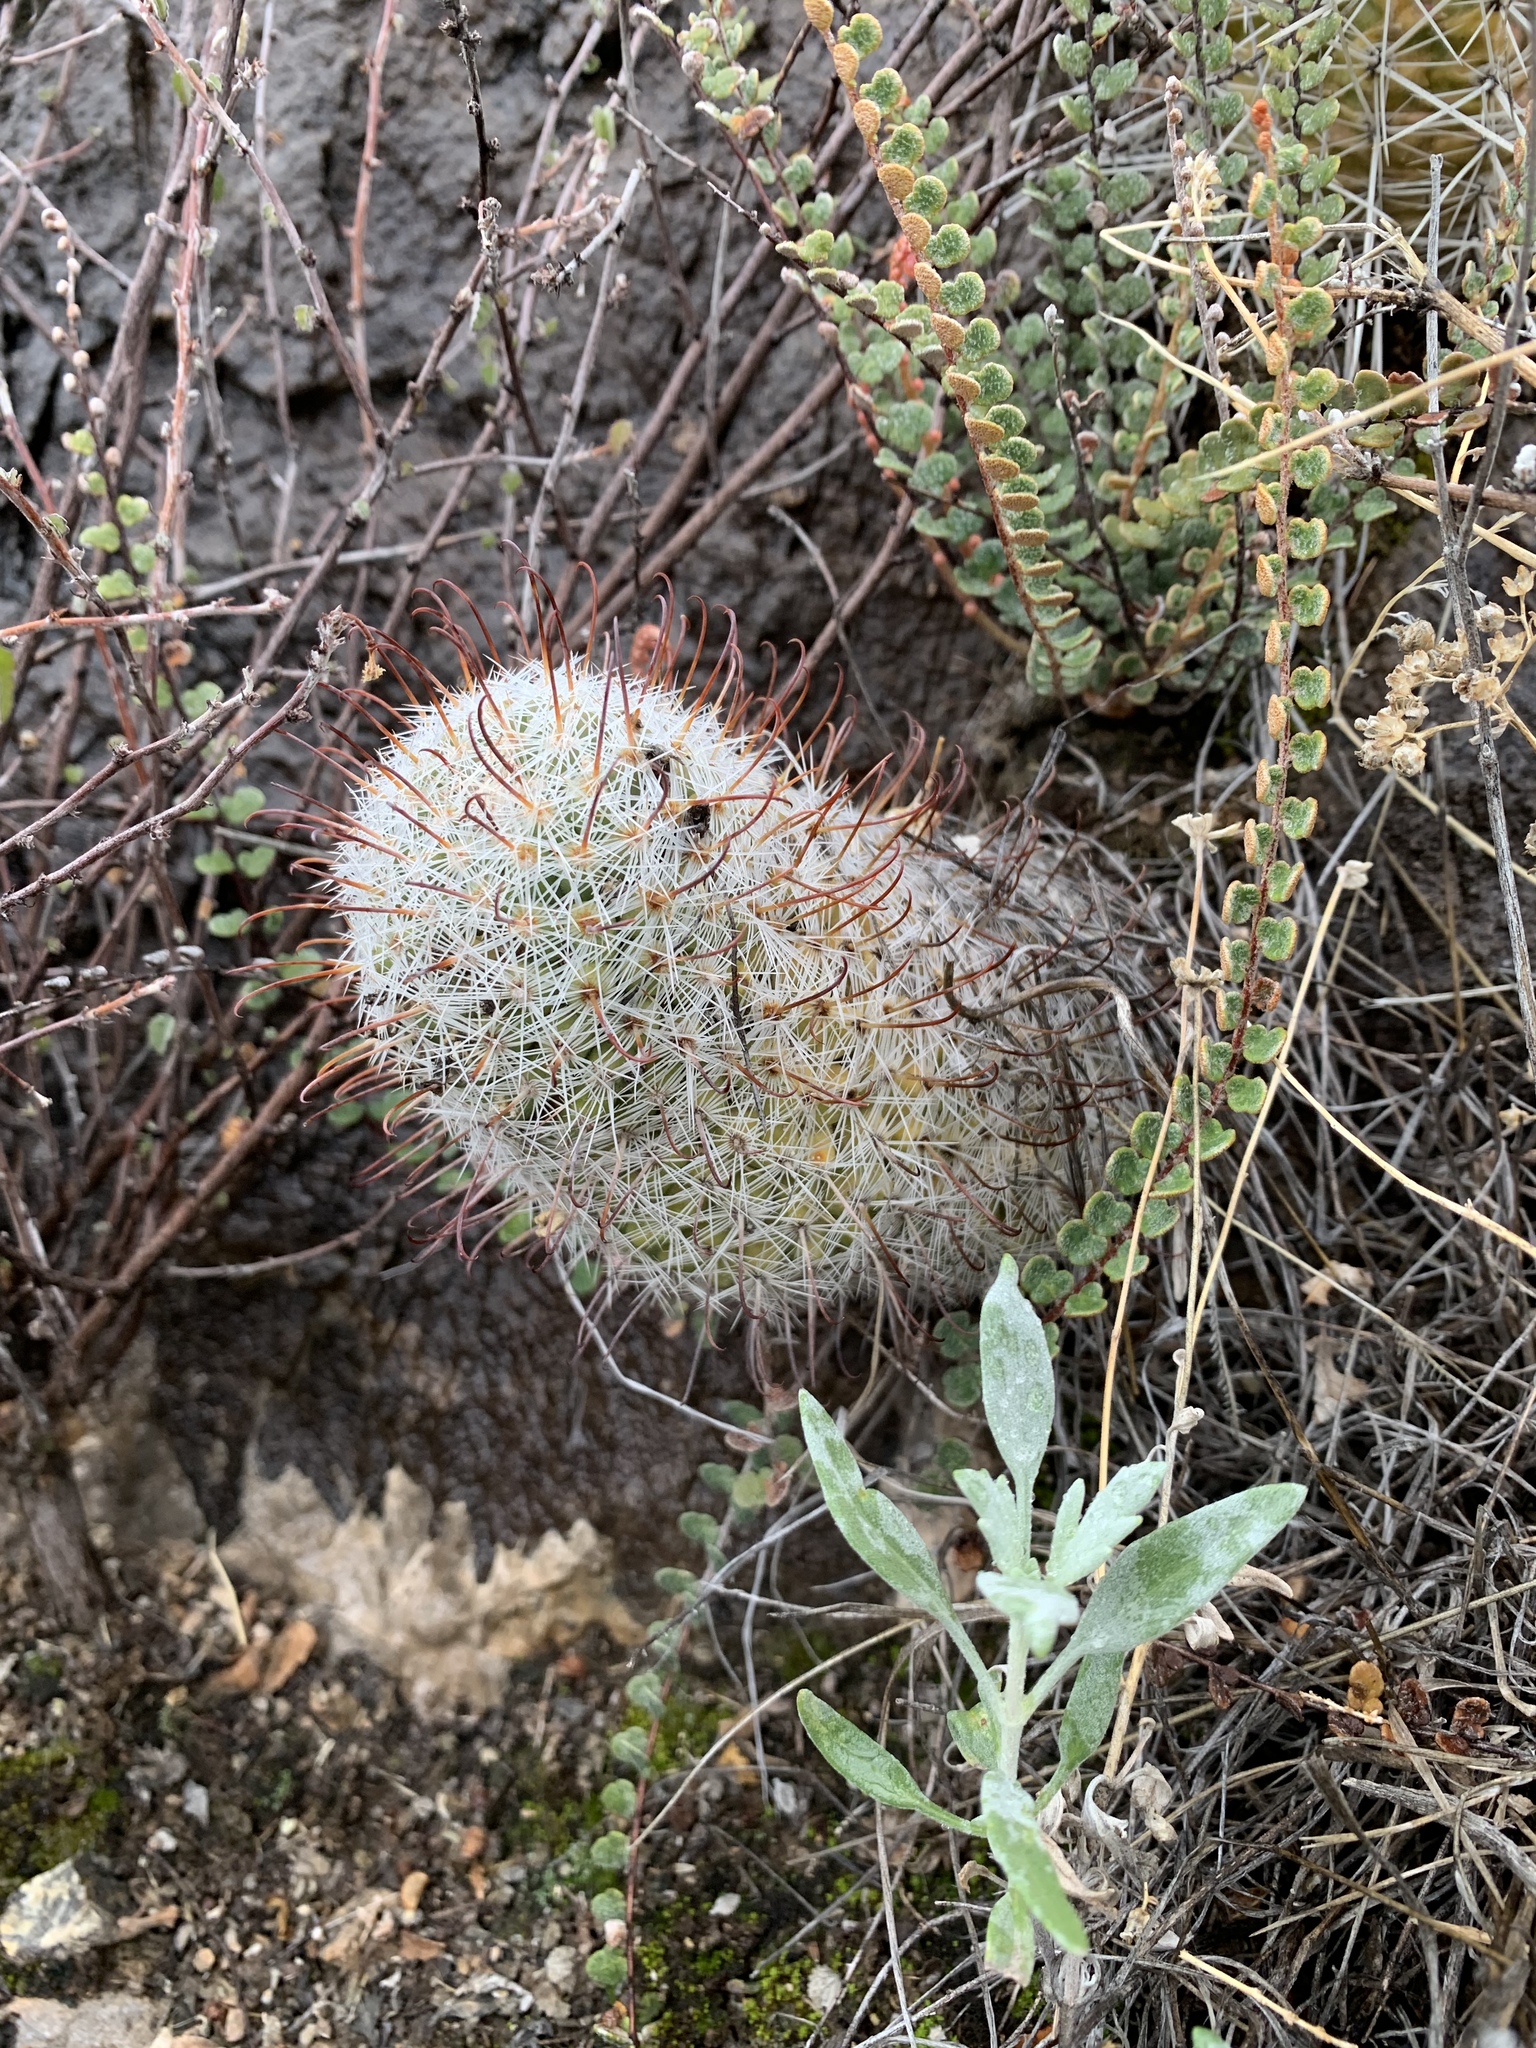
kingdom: Plantae
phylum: Tracheophyta
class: Magnoliopsida
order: Caryophyllales
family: Cactaceae
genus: Cochemiea
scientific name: Cochemiea grahamii
